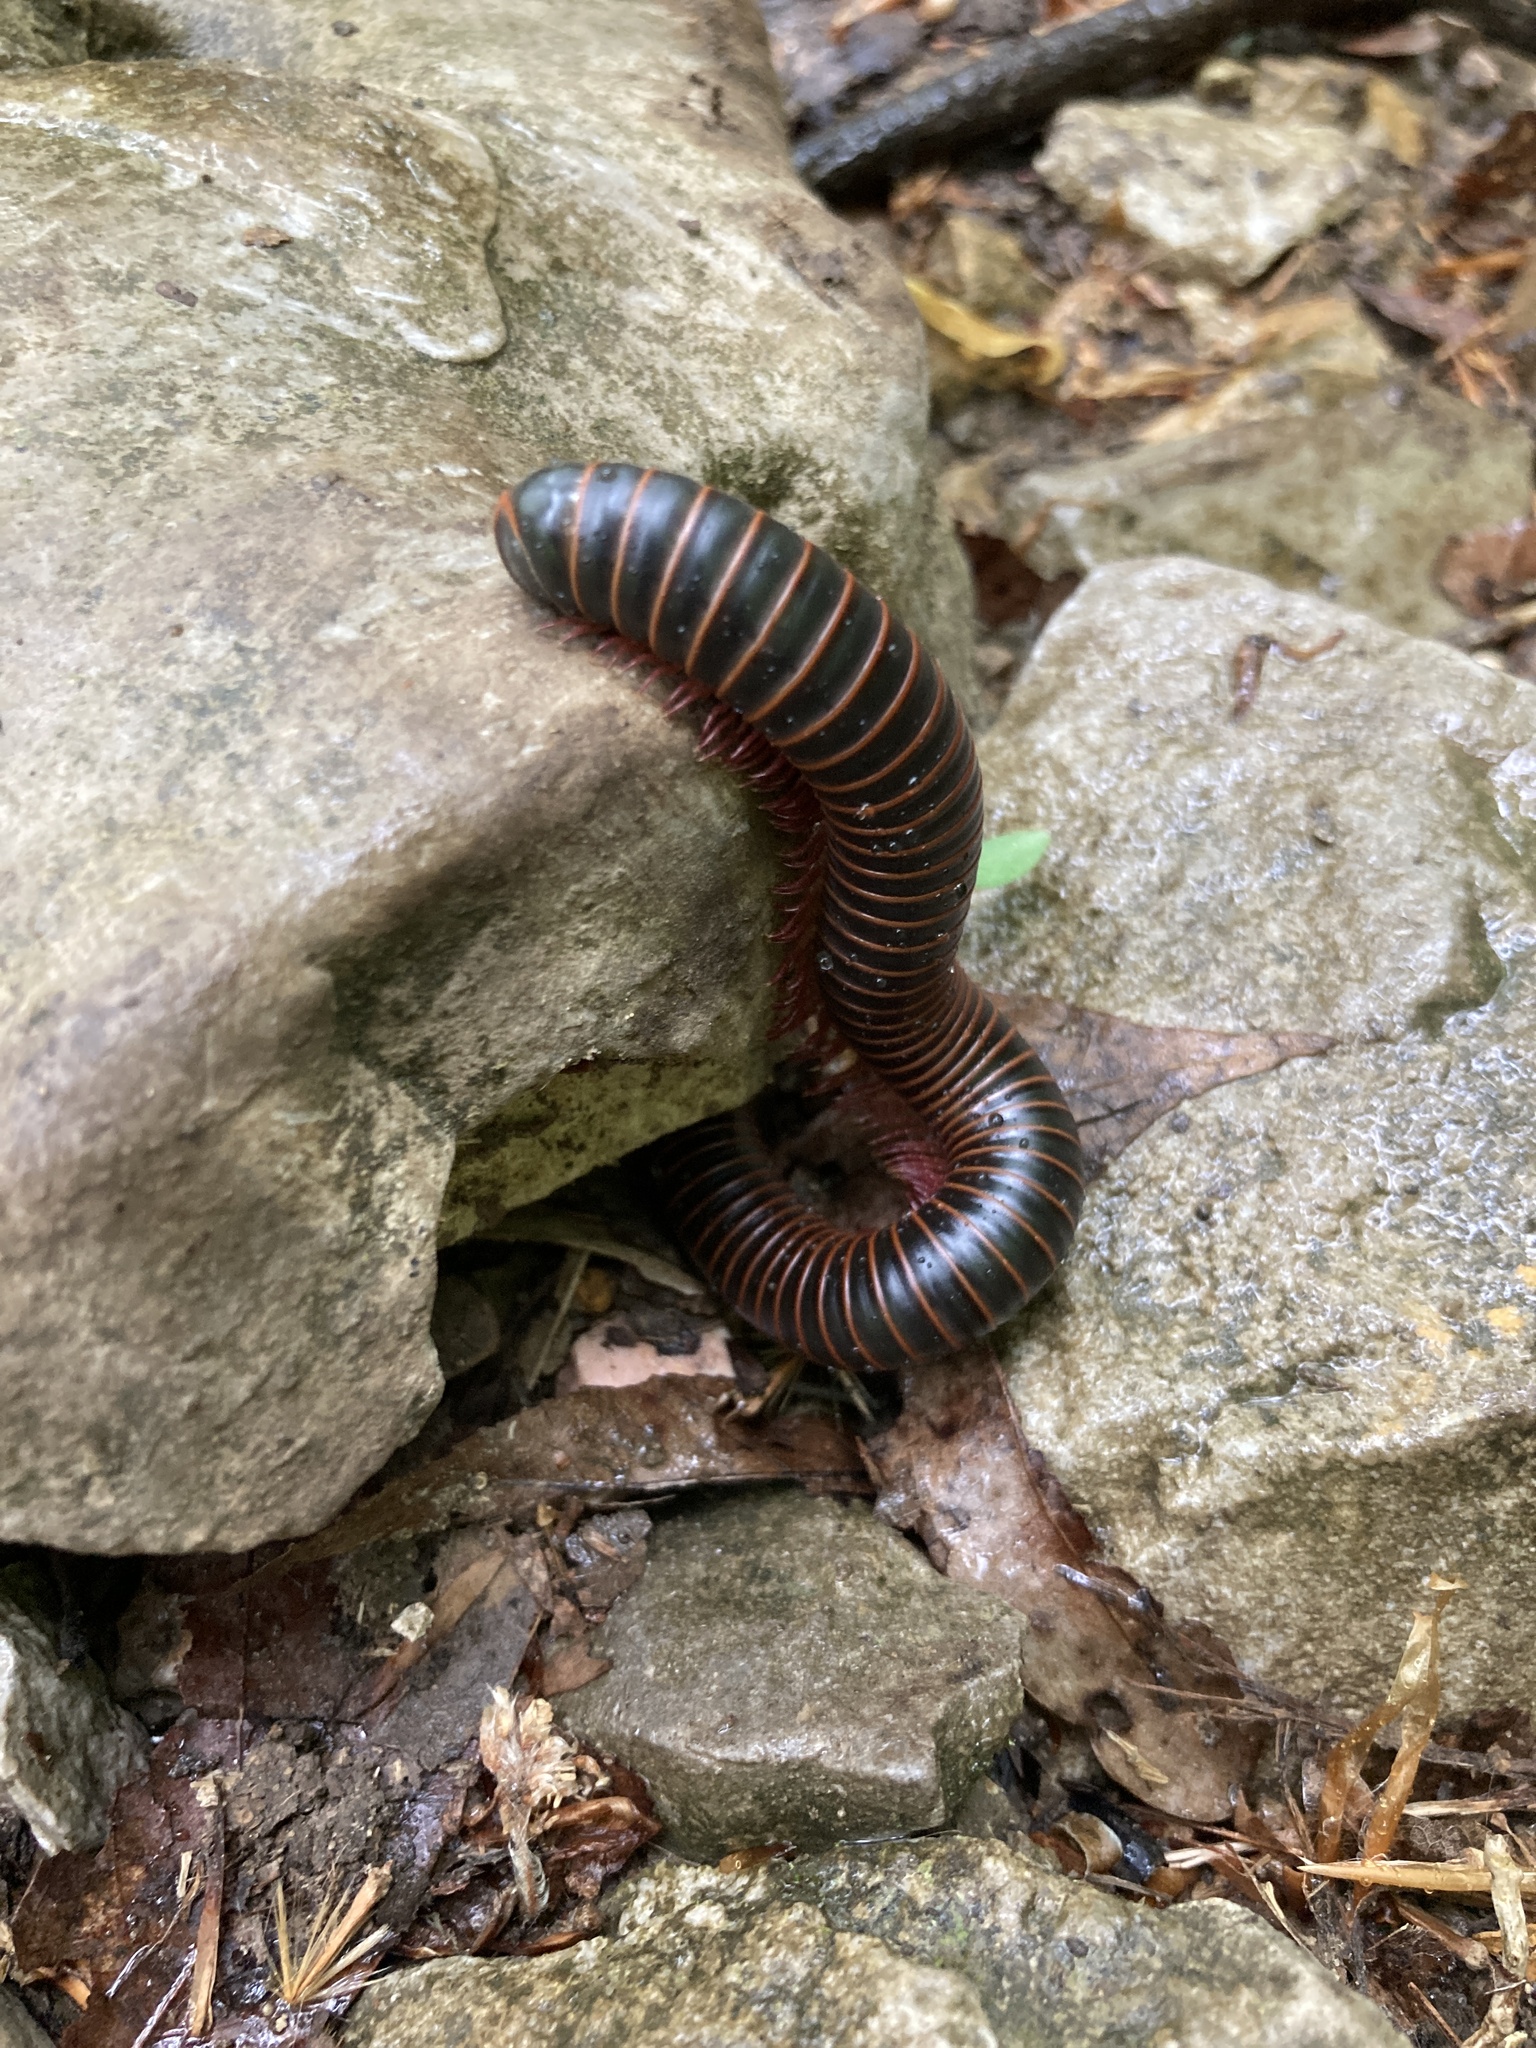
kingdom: Animalia
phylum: Arthropoda
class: Diplopoda
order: Spirobolida
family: Spirobolidae
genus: Narceus
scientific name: Narceus
